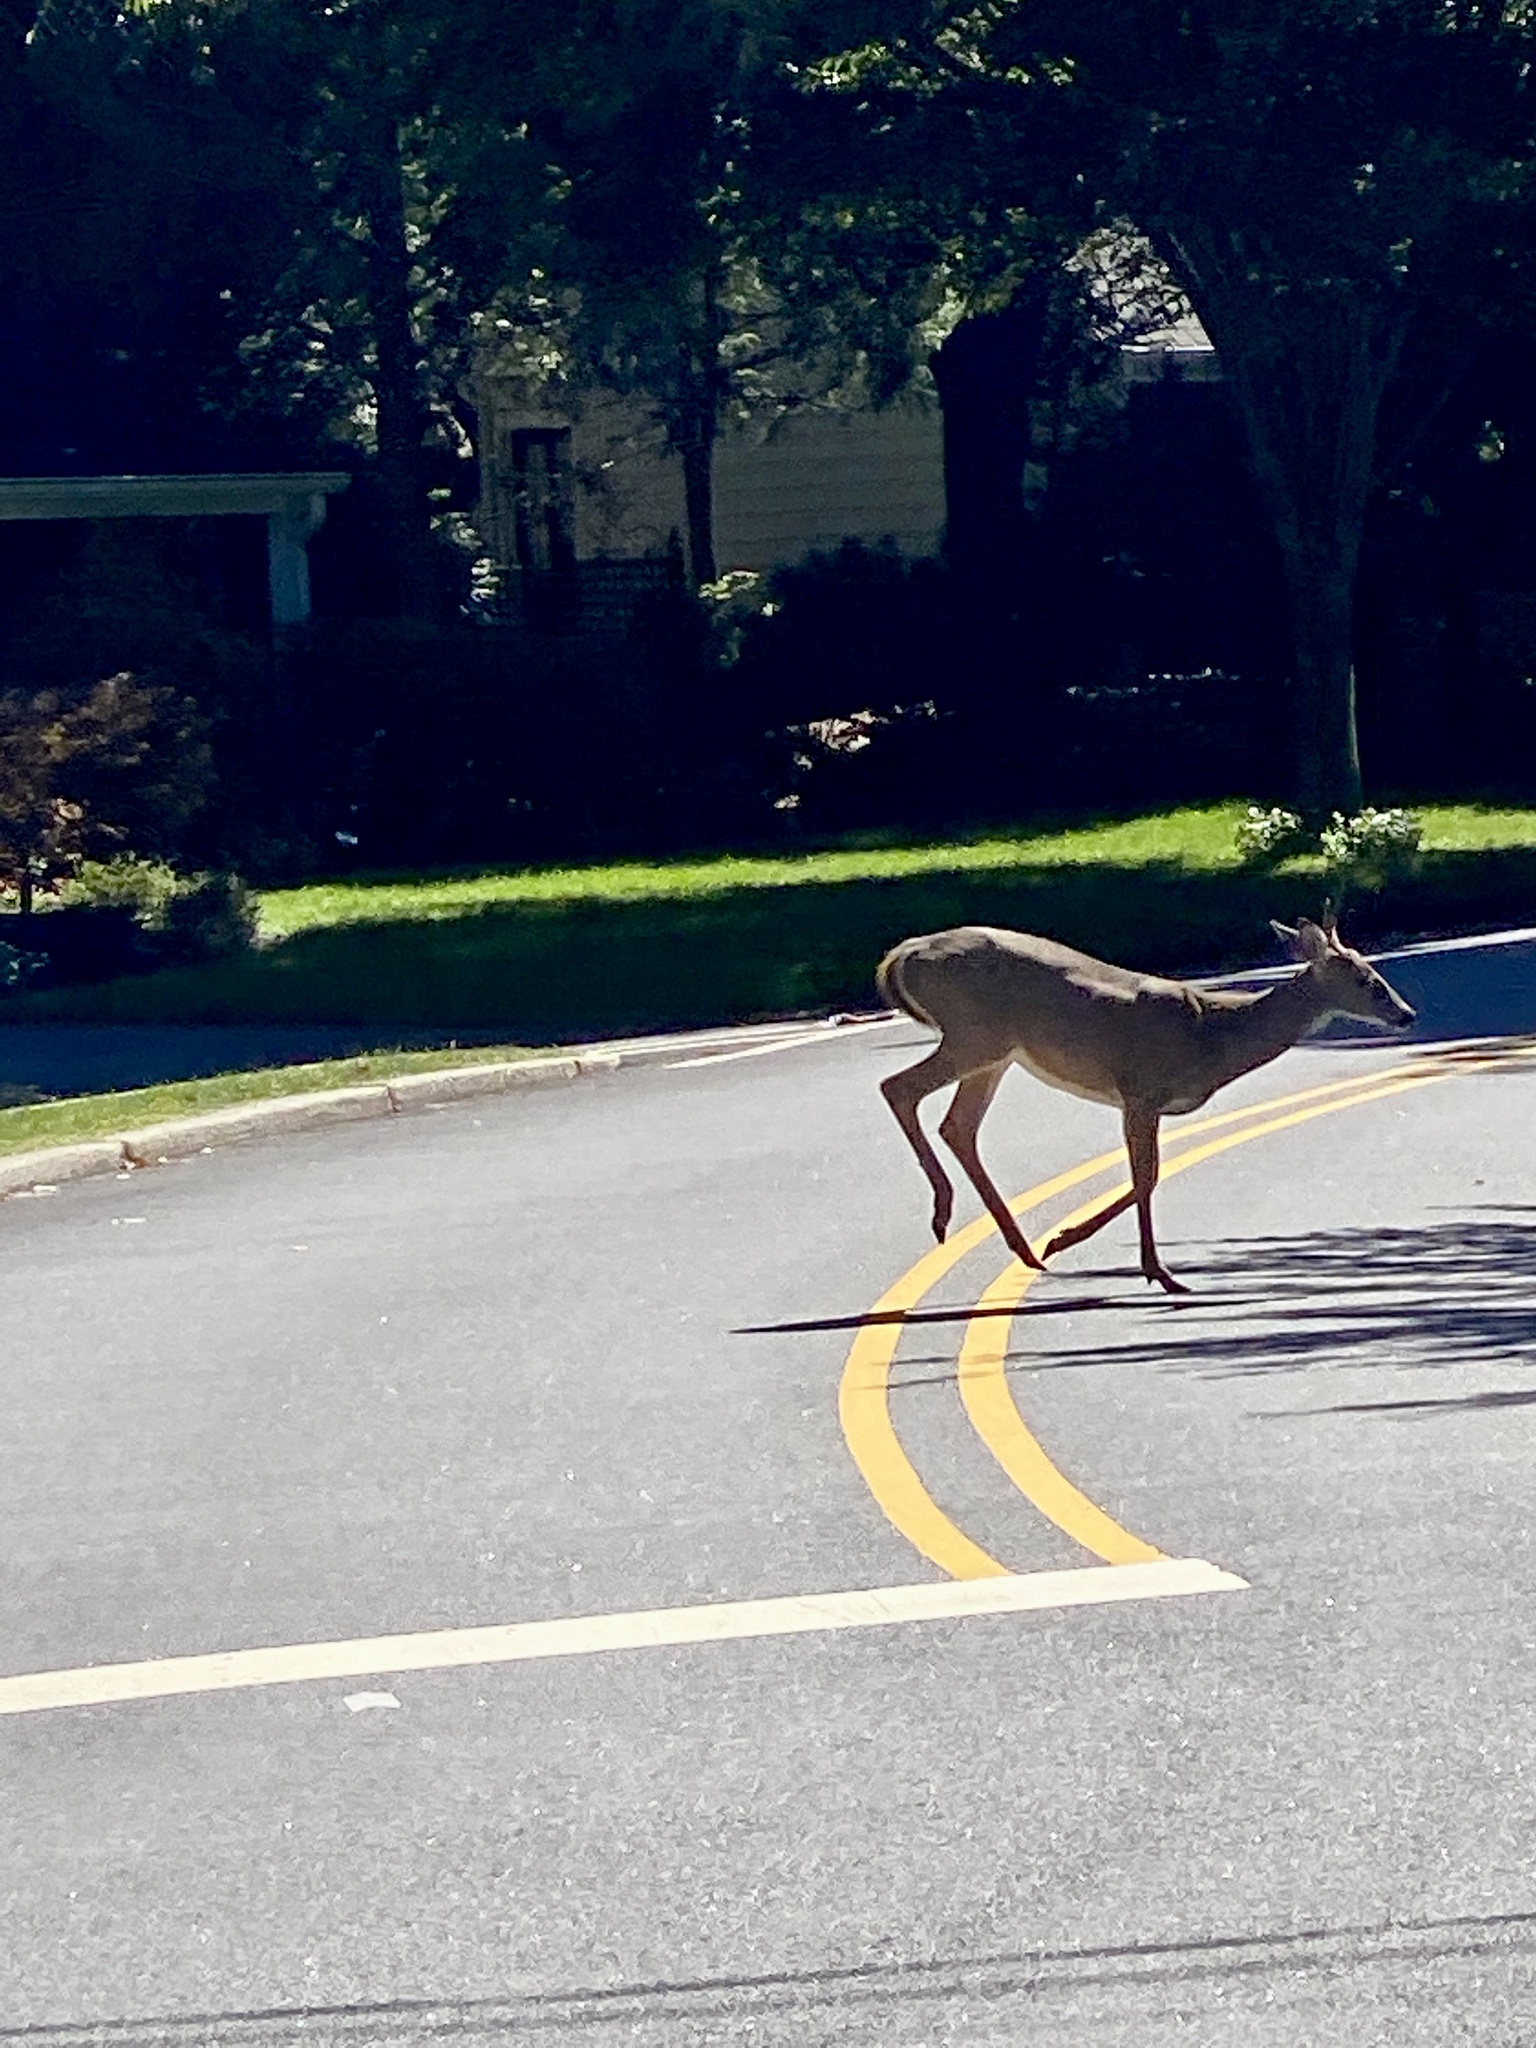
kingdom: Animalia
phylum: Chordata
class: Mammalia
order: Artiodactyla
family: Cervidae
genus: Odocoileus
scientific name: Odocoileus virginianus
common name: White-tailed deer
